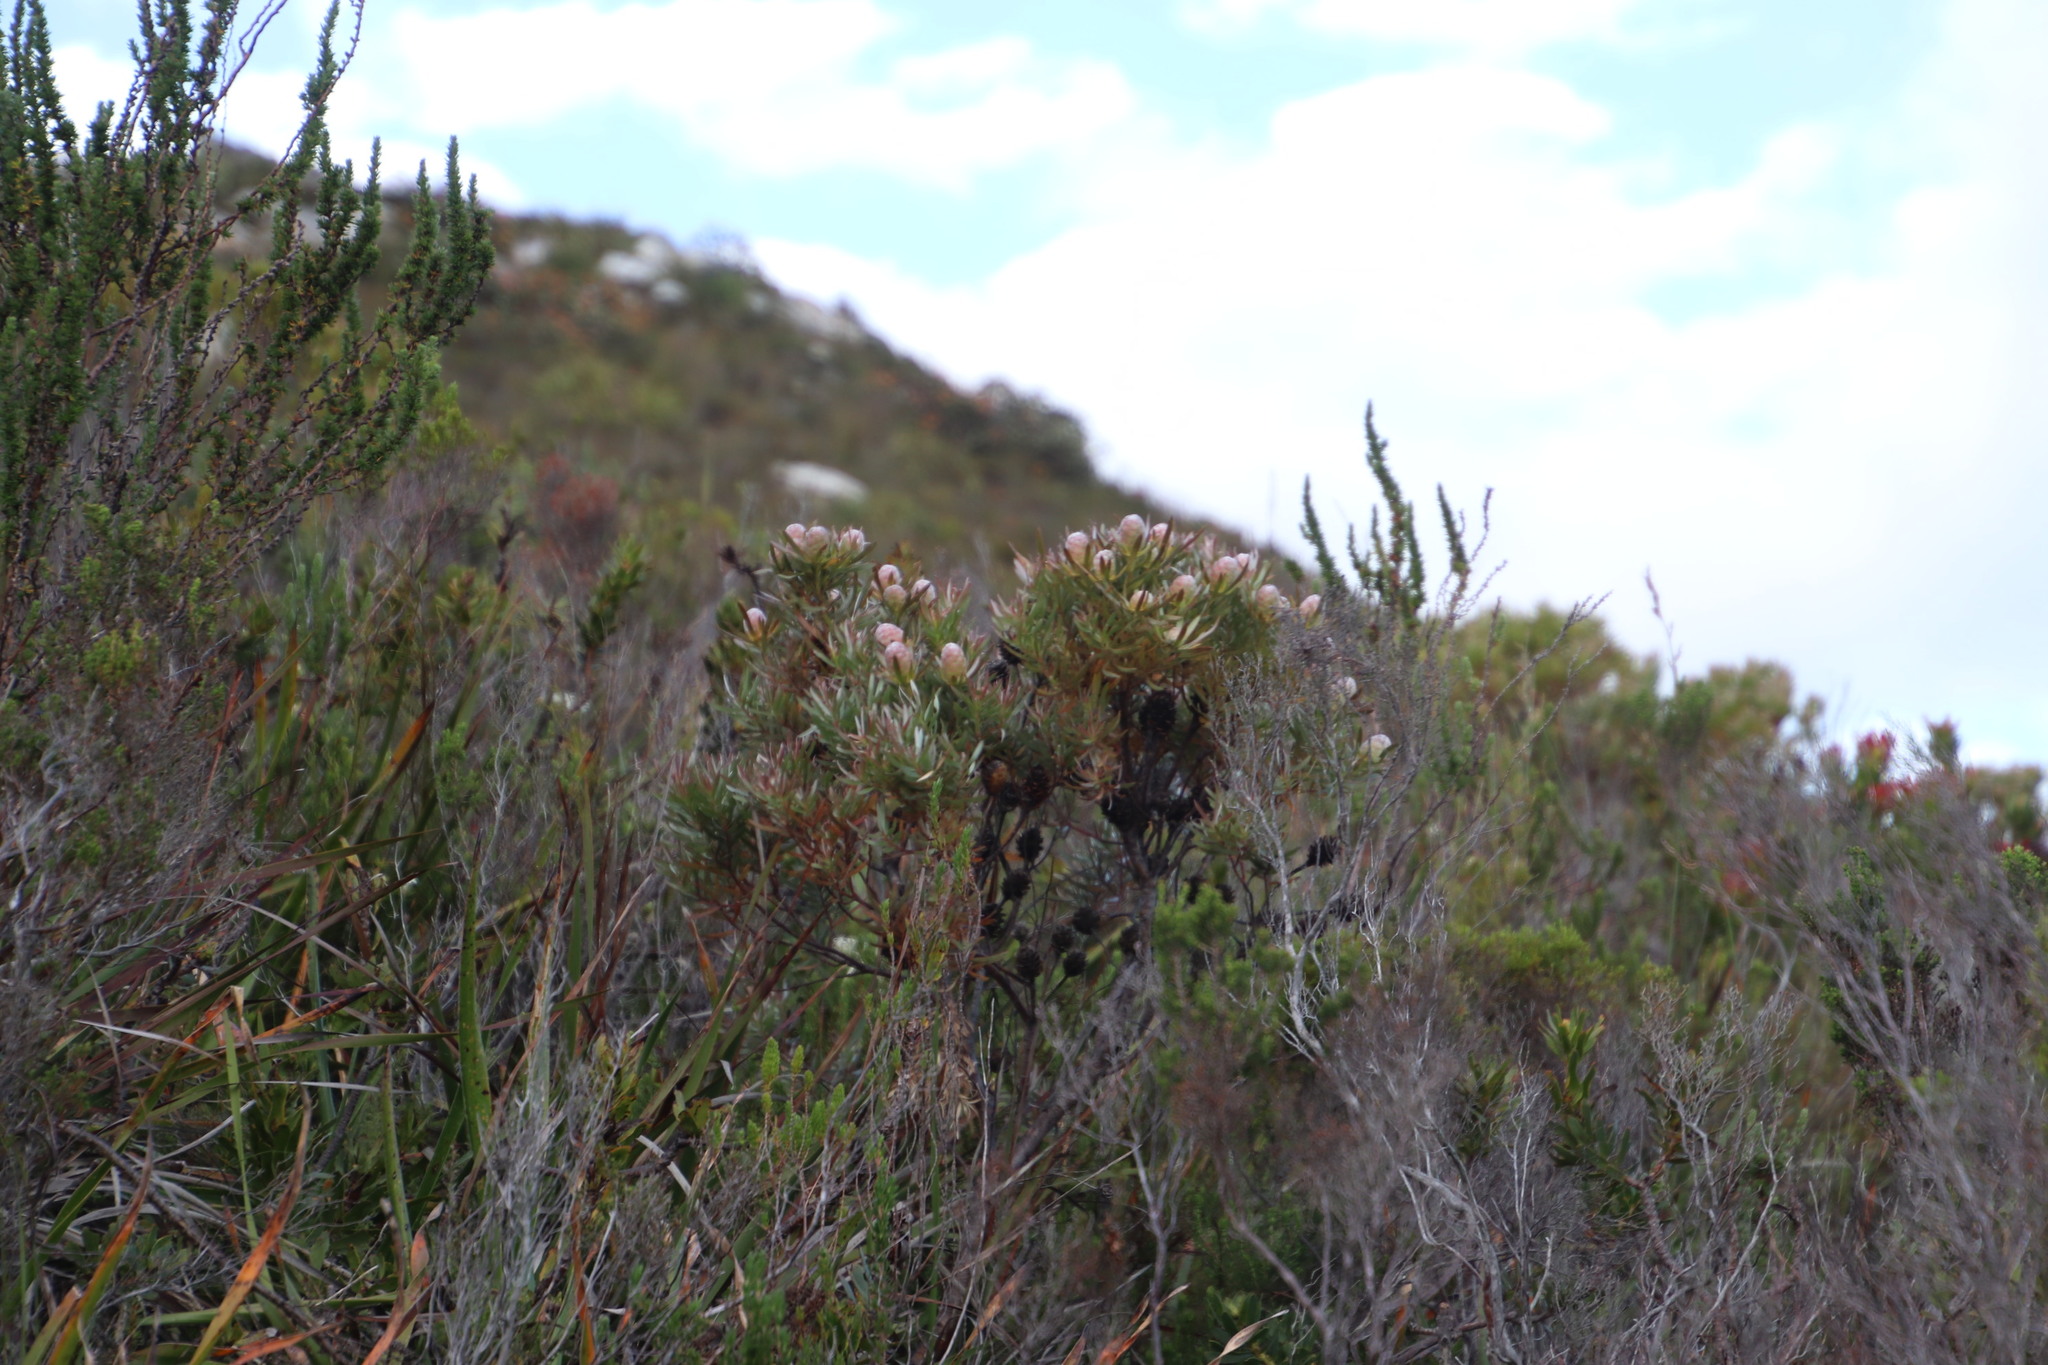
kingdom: Plantae
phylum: Tracheophyta
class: Magnoliopsida
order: Proteales
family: Proteaceae
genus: Leucadendron
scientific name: Leucadendron xanthoconus
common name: Sickle-leaf conebush
